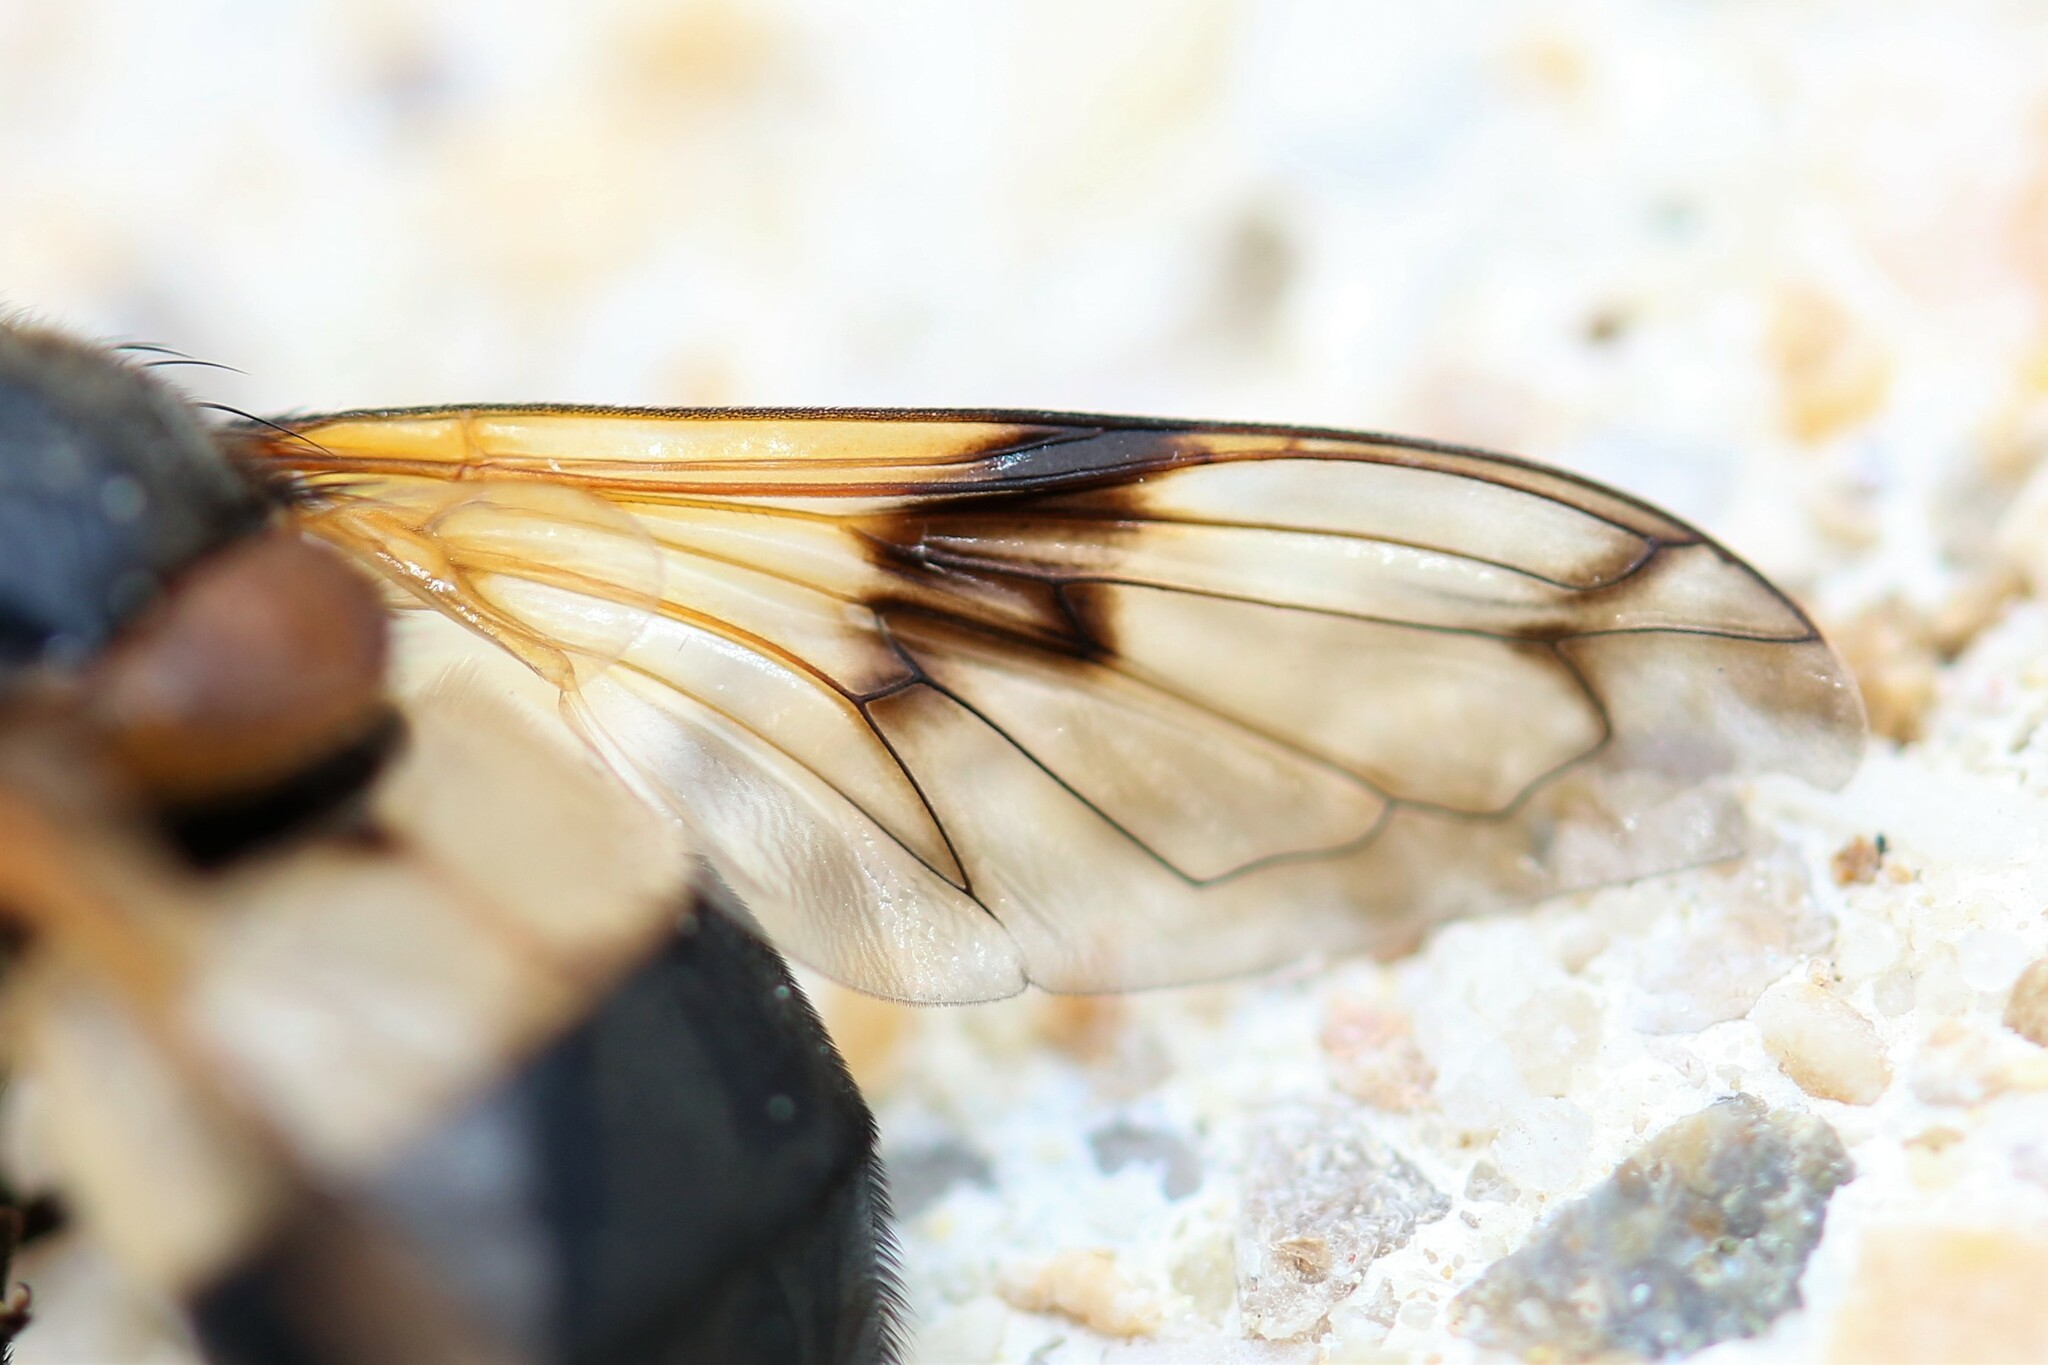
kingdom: Animalia
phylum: Arthropoda
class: Insecta
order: Diptera
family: Syrphidae
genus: Volucella
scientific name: Volucella pellucens
